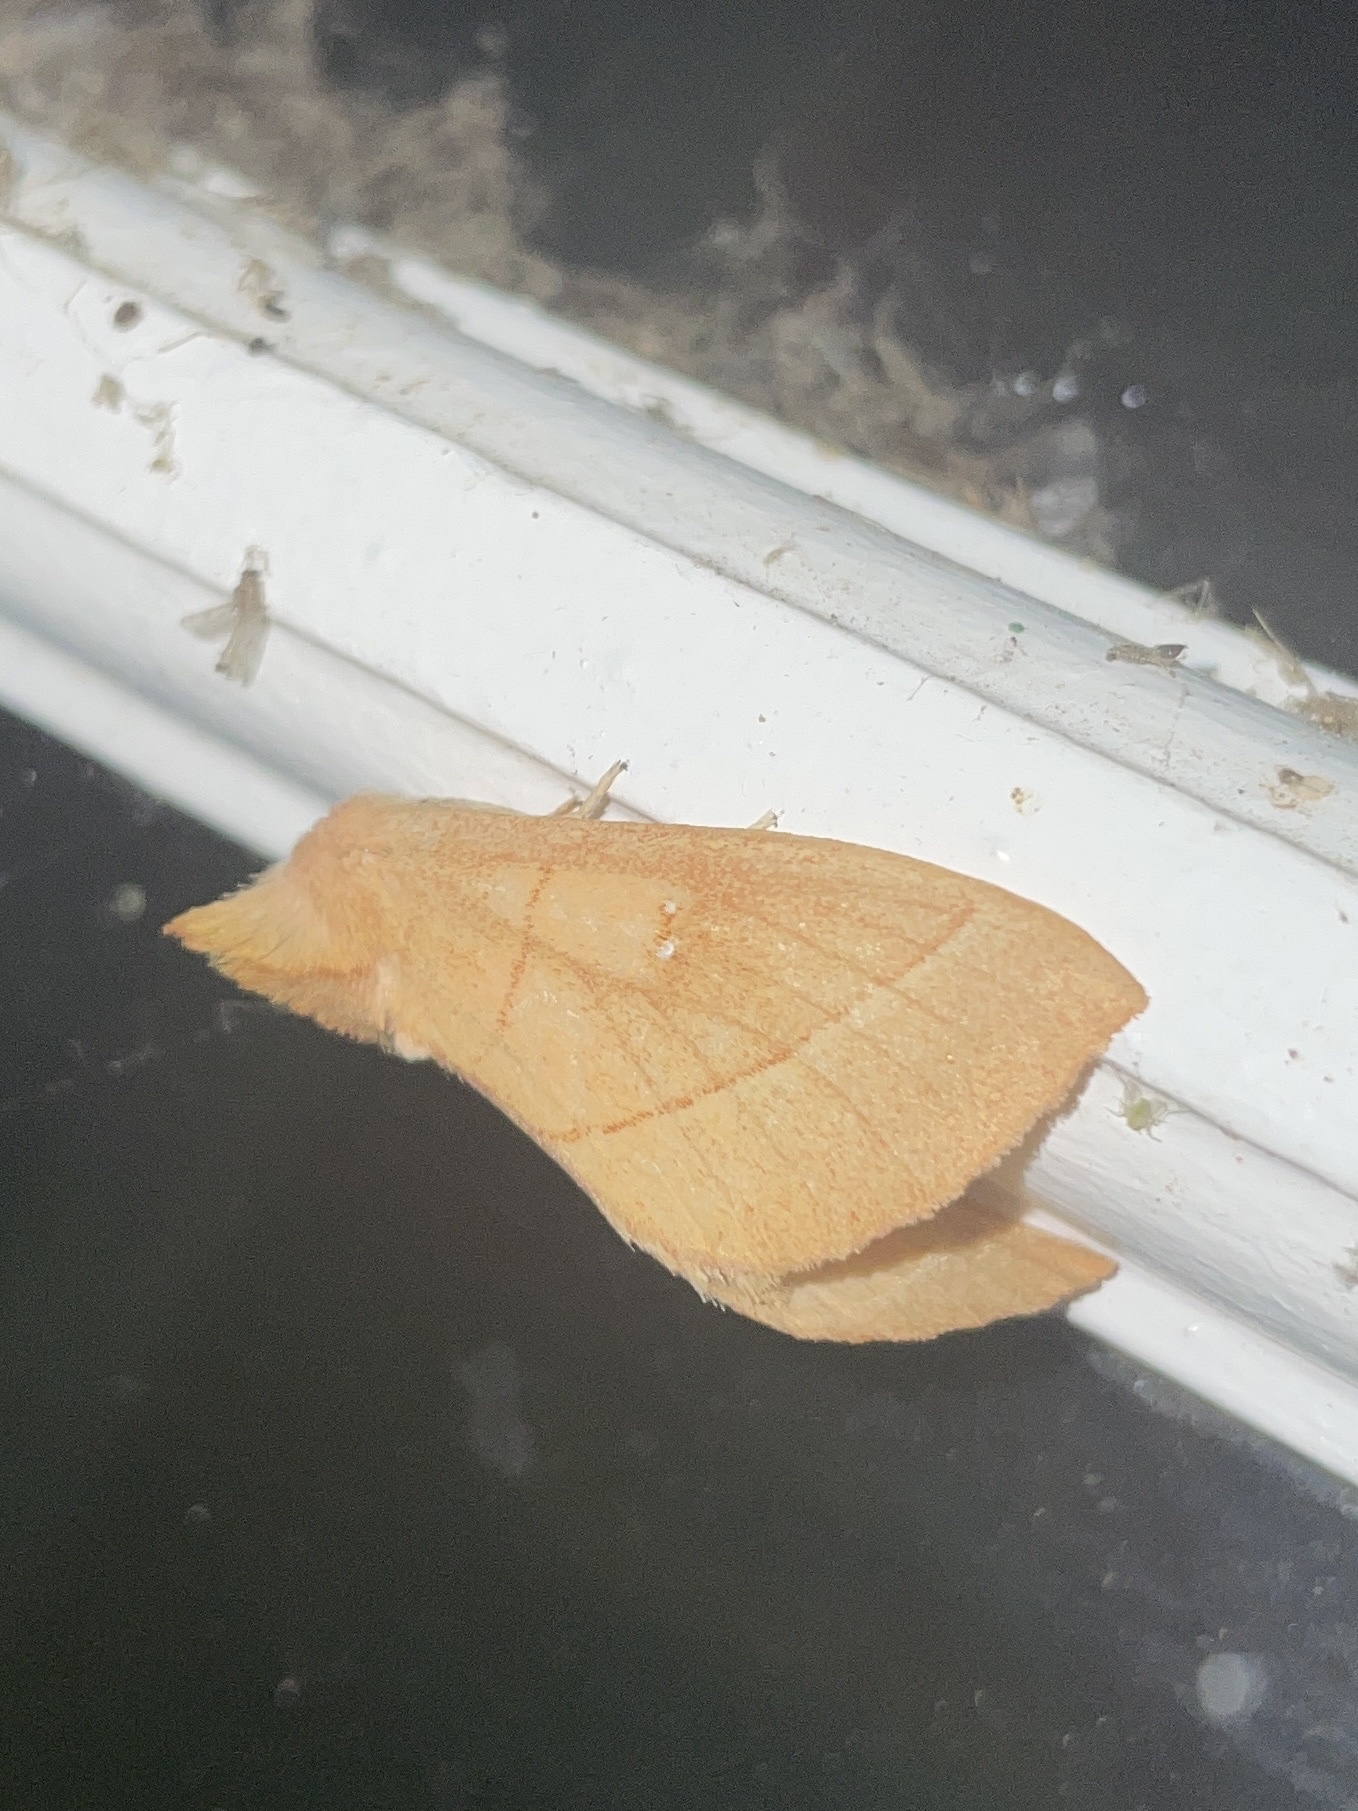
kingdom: Animalia
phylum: Arthropoda
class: Insecta
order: Lepidoptera
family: Notodontidae
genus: Nadata
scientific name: Nadata gibbosa
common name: White-dotted prominent
